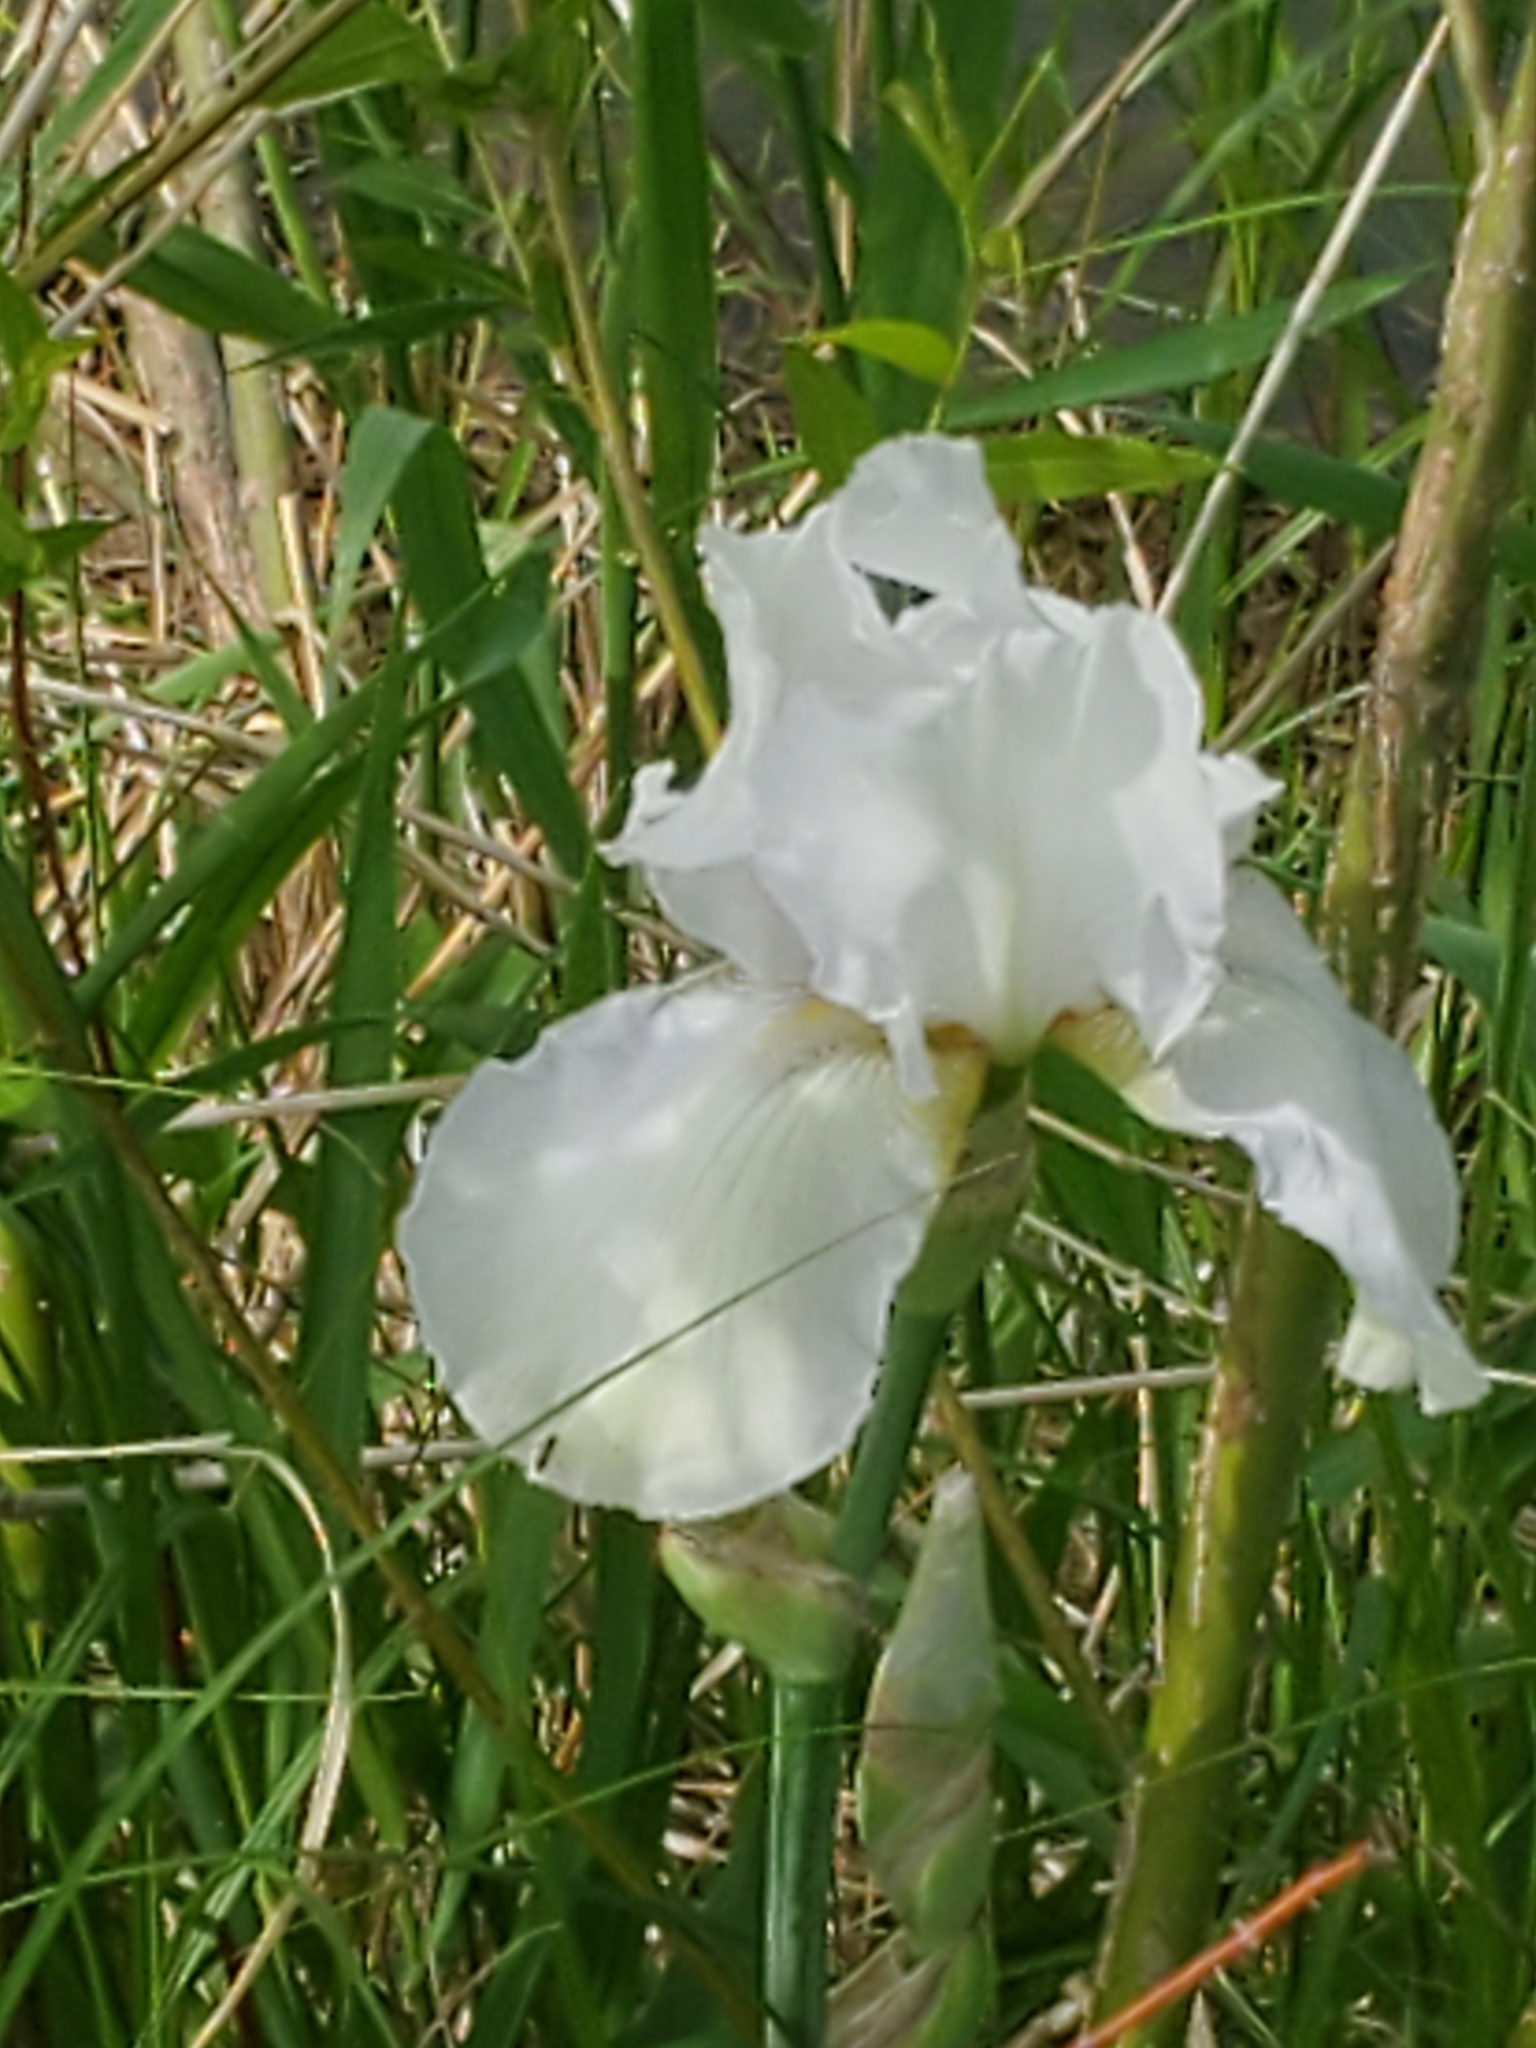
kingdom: Plantae
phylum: Tracheophyta
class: Liliopsida
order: Asparagales
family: Iridaceae
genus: Iris
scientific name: Iris hybrida
